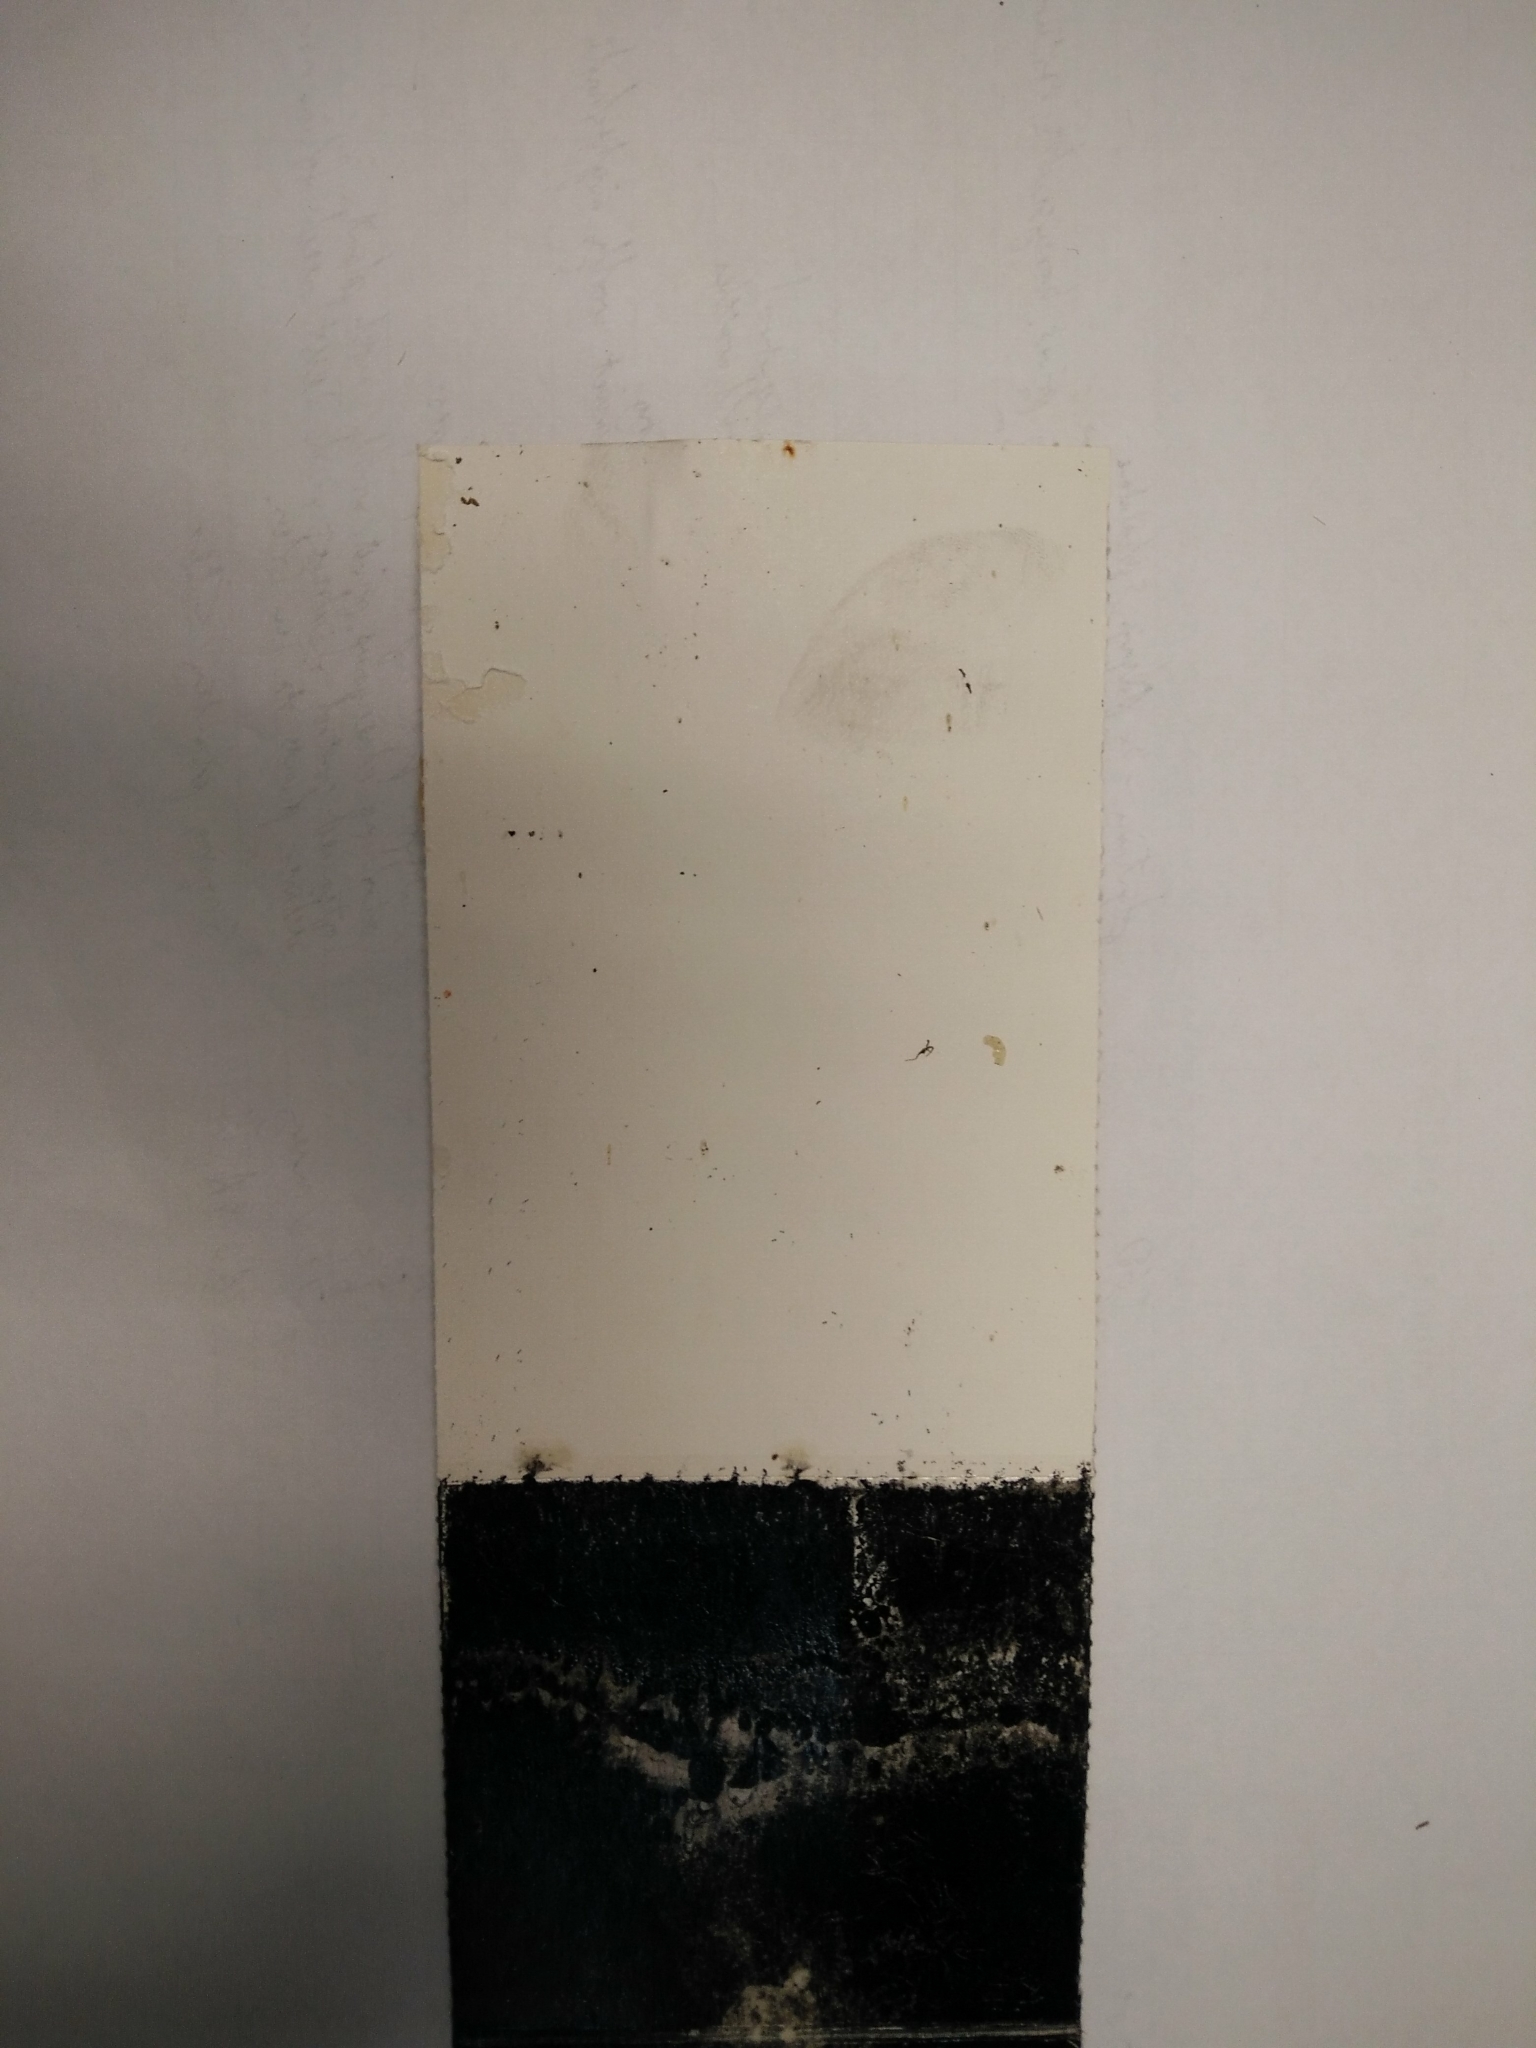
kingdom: Animalia
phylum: Chordata
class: Mammalia
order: Rodentia
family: Muridae
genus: Mus
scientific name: Mus musculus
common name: House mouse
